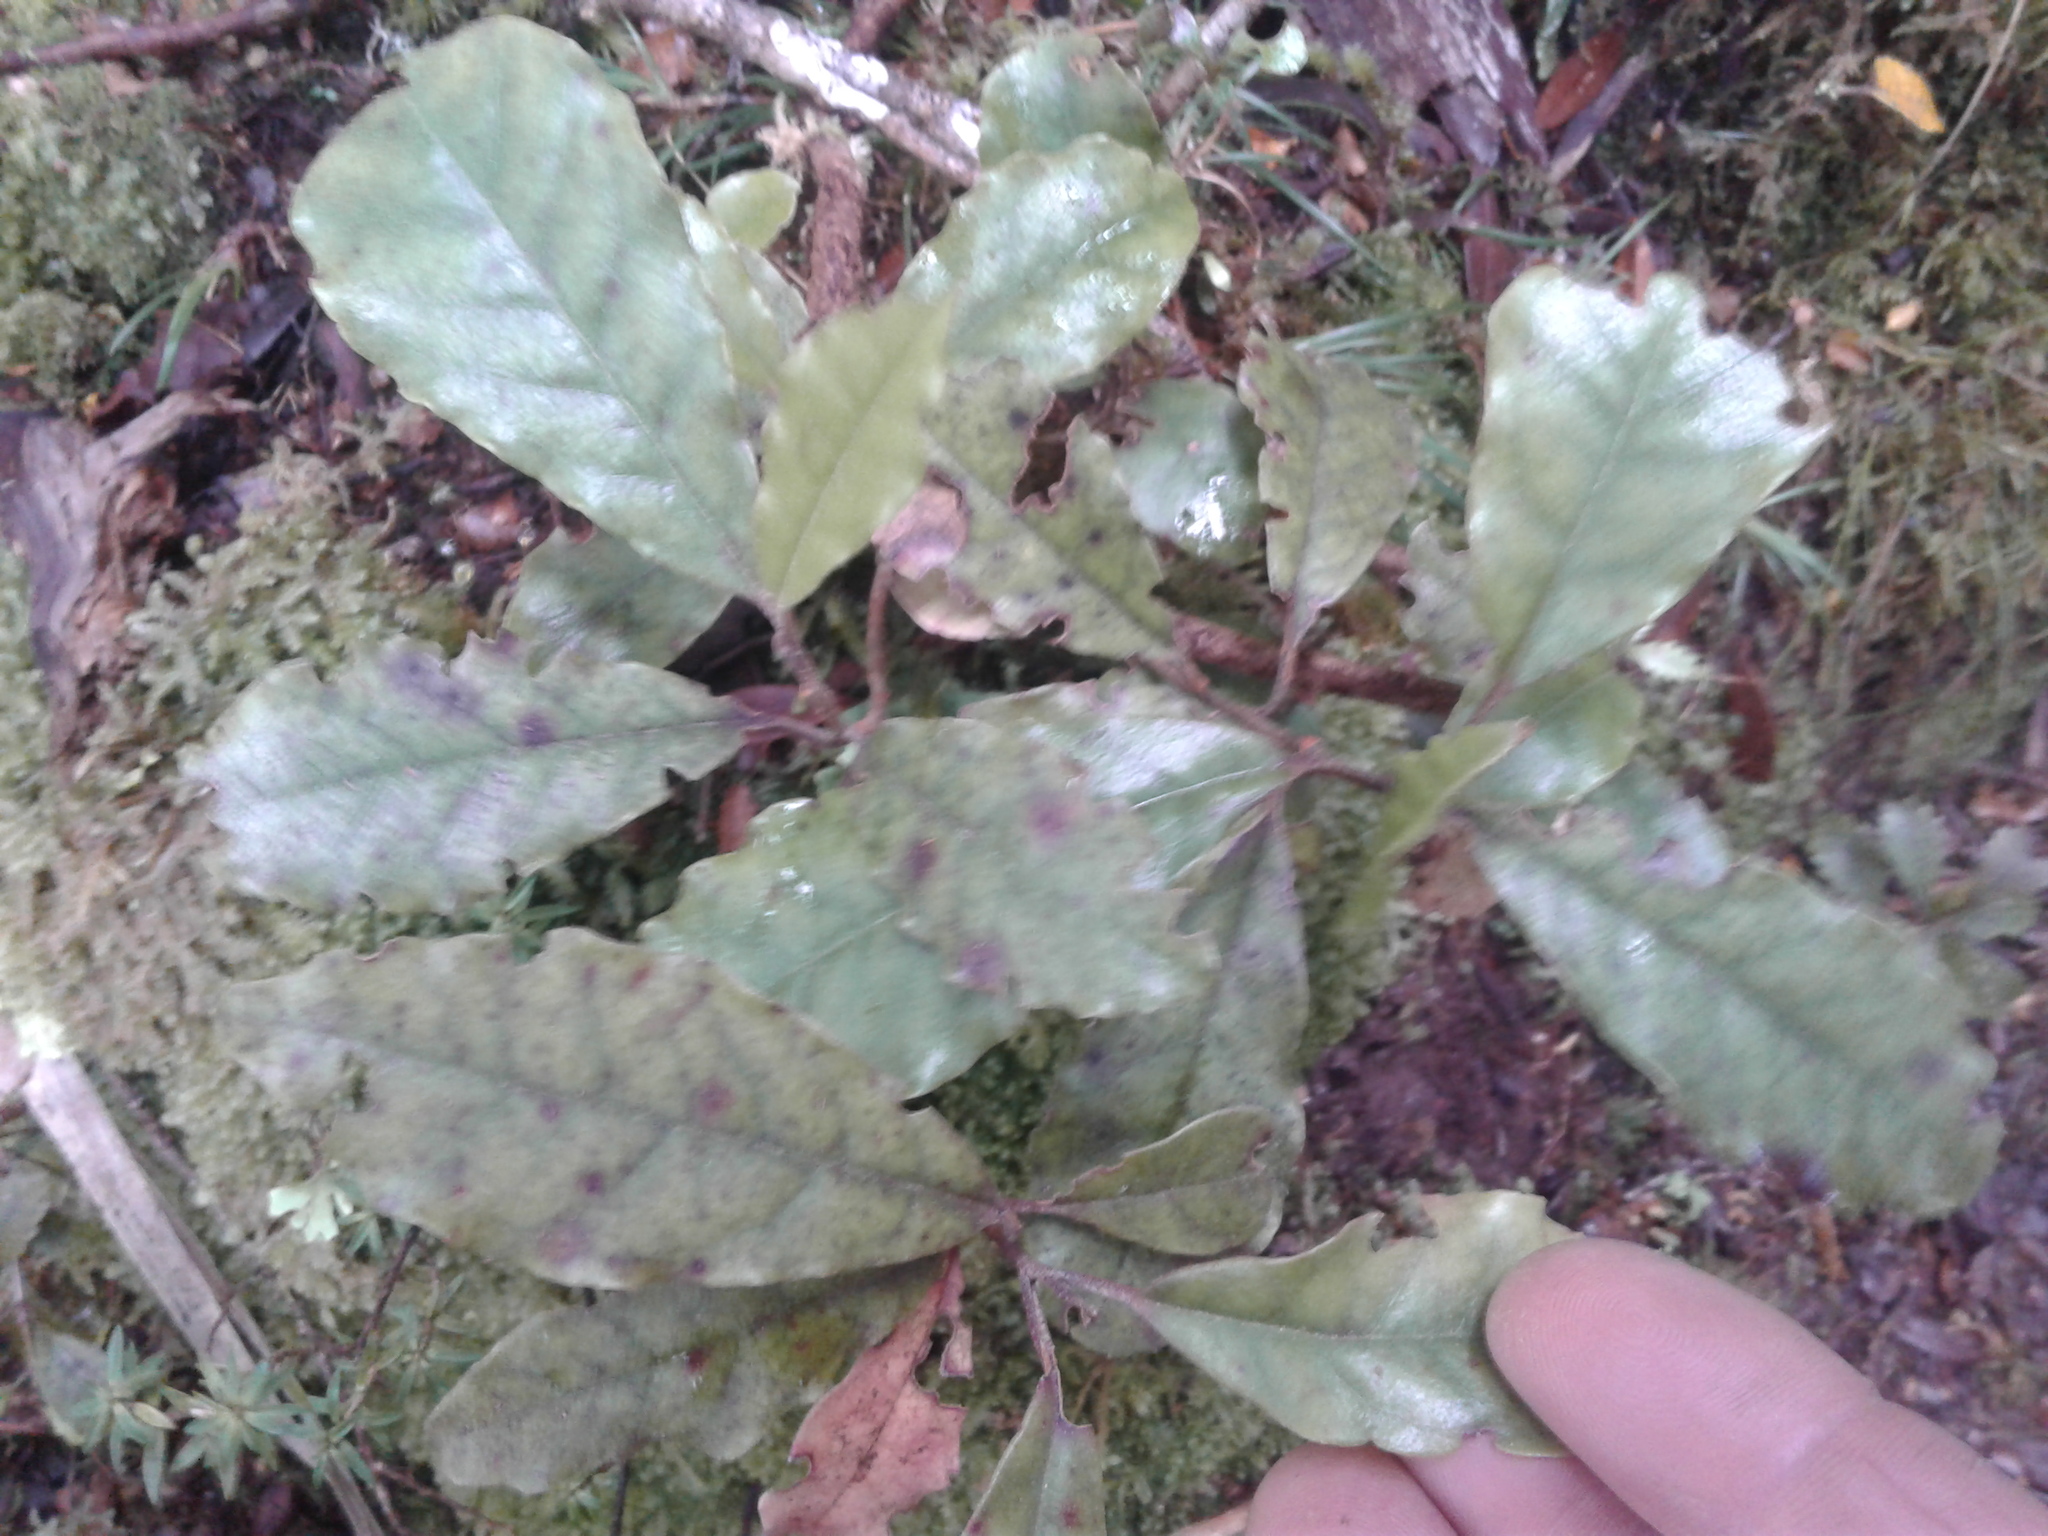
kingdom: Plantae
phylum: Tracheophyta
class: Magnoliopsida
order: Paracryphiales
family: Paracryphiaceae
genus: Quintinia
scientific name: Quintinia serrata
